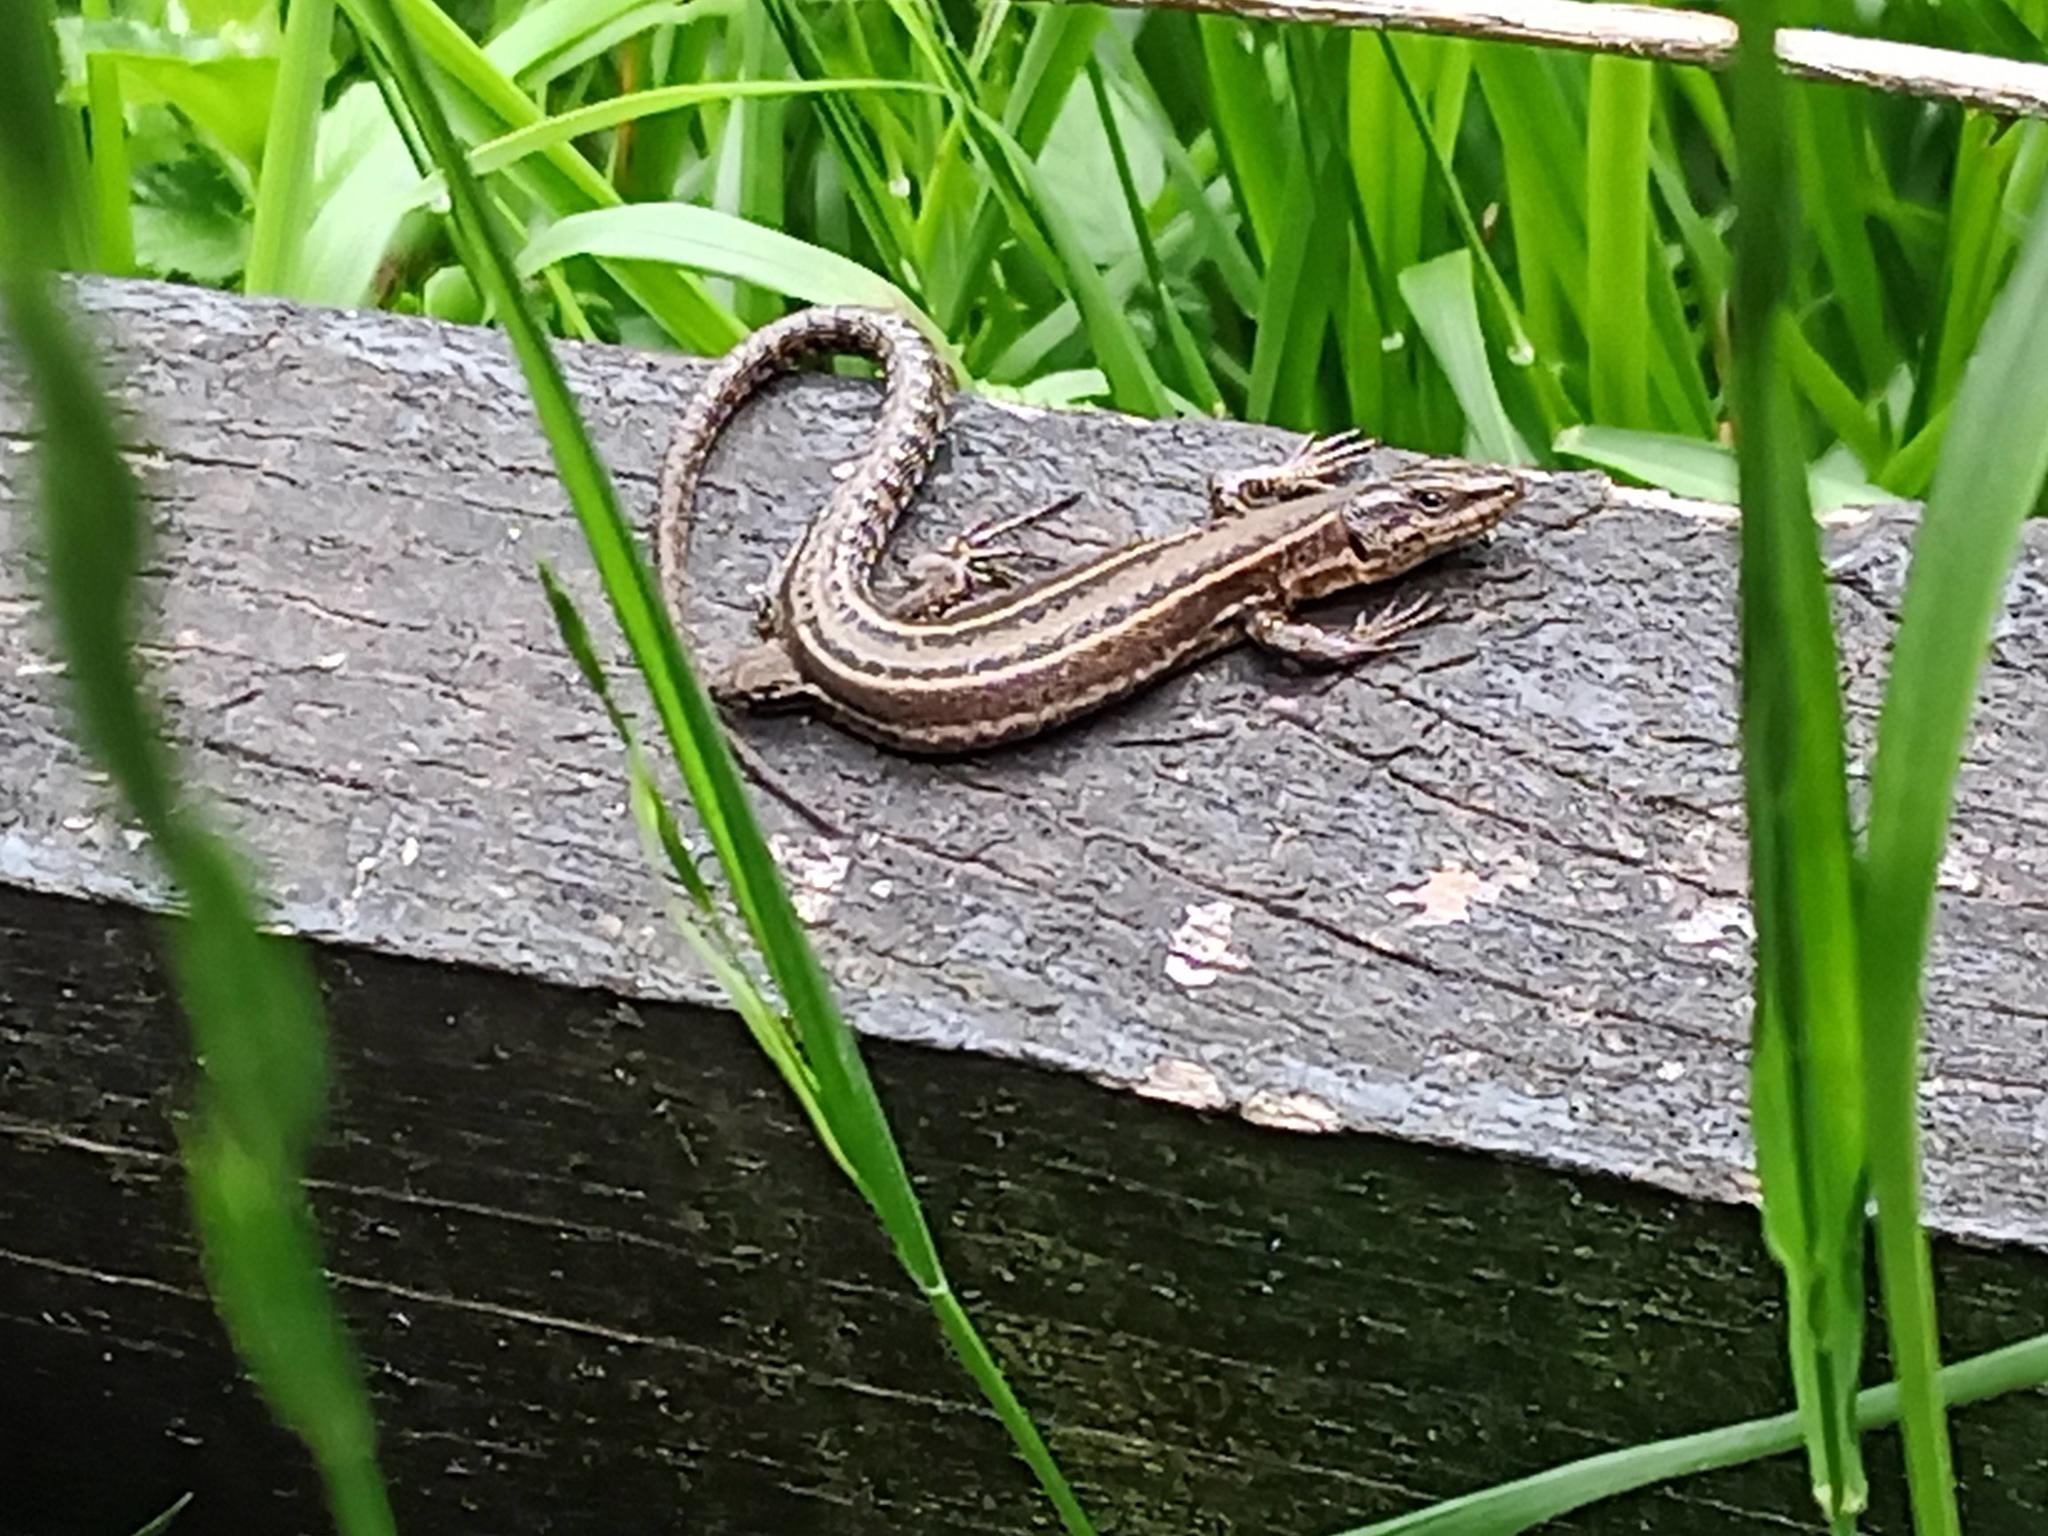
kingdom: Animalia
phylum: Chordata
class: Squamata
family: Lacertidae
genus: Podarcis
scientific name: Podarcis bocagei
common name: Bocage's wall lizard
